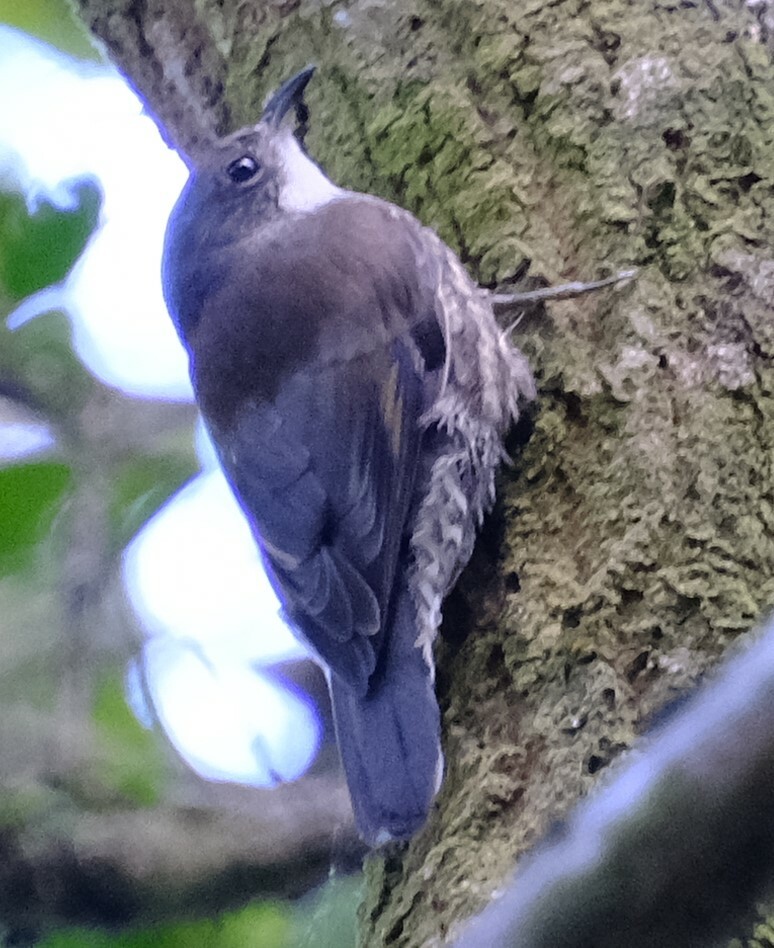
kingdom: Animalia
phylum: Chordata
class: Aves
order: Passeriformes
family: Climacteridae
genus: Cormobates
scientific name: Cormobates leucophaea
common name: White-throated treecreeper
